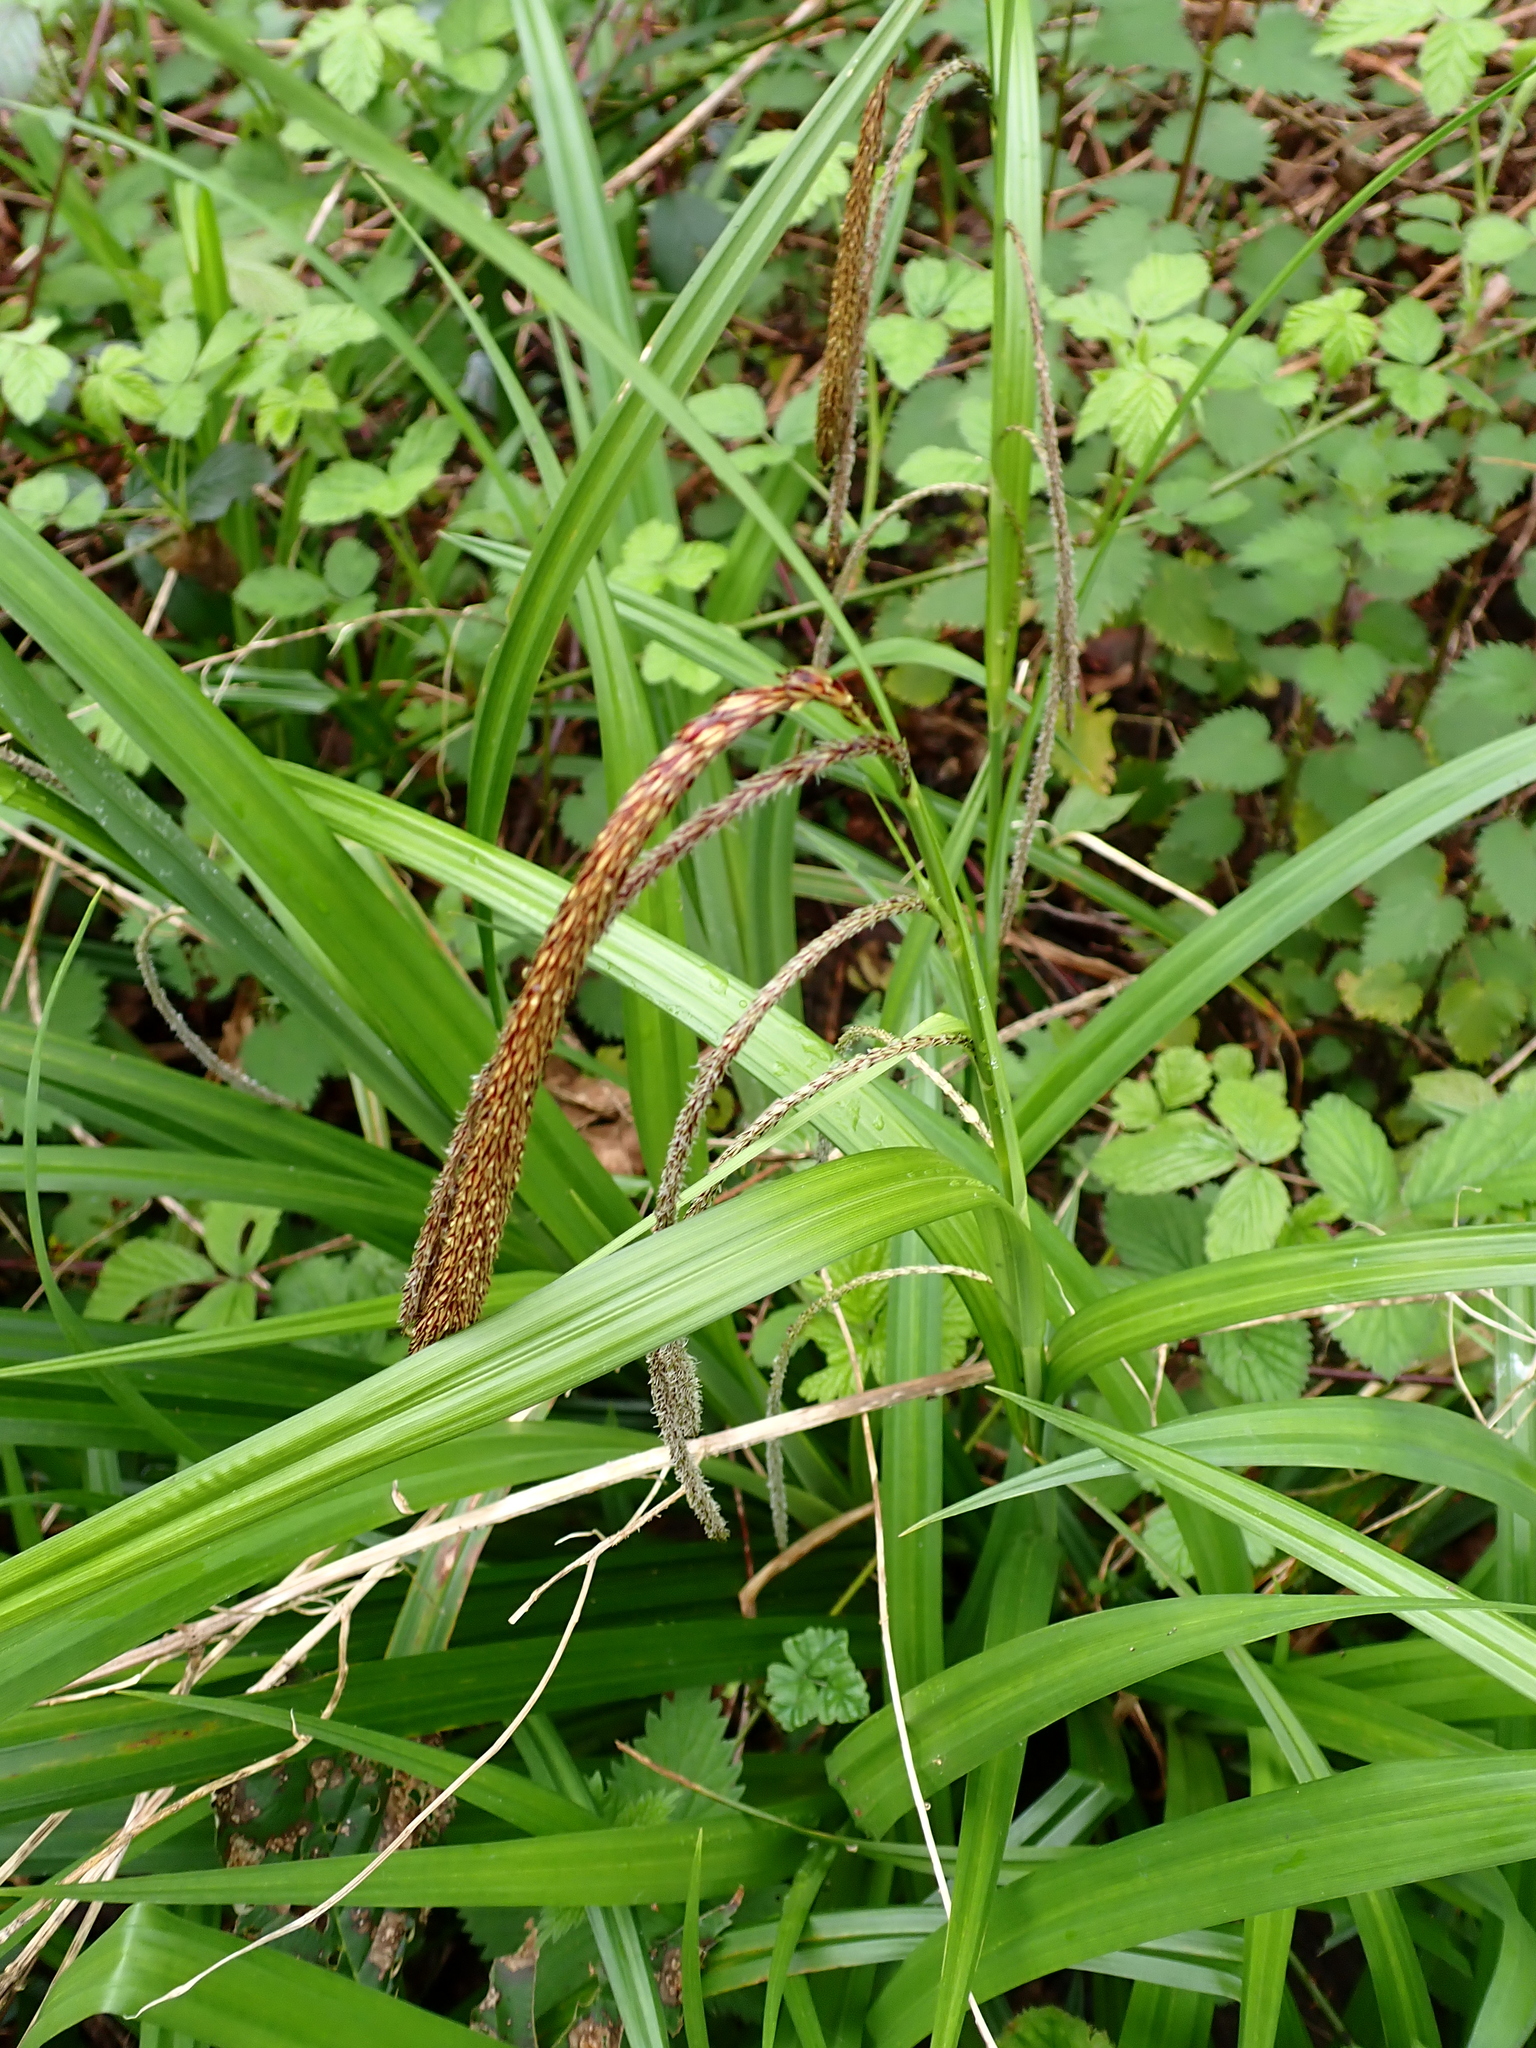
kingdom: Plantae
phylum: Tracheophyta
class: Liliopsida
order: Poales
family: Cyperaceae
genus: Carex
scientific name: Carex pendula
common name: Pendulous sedge
